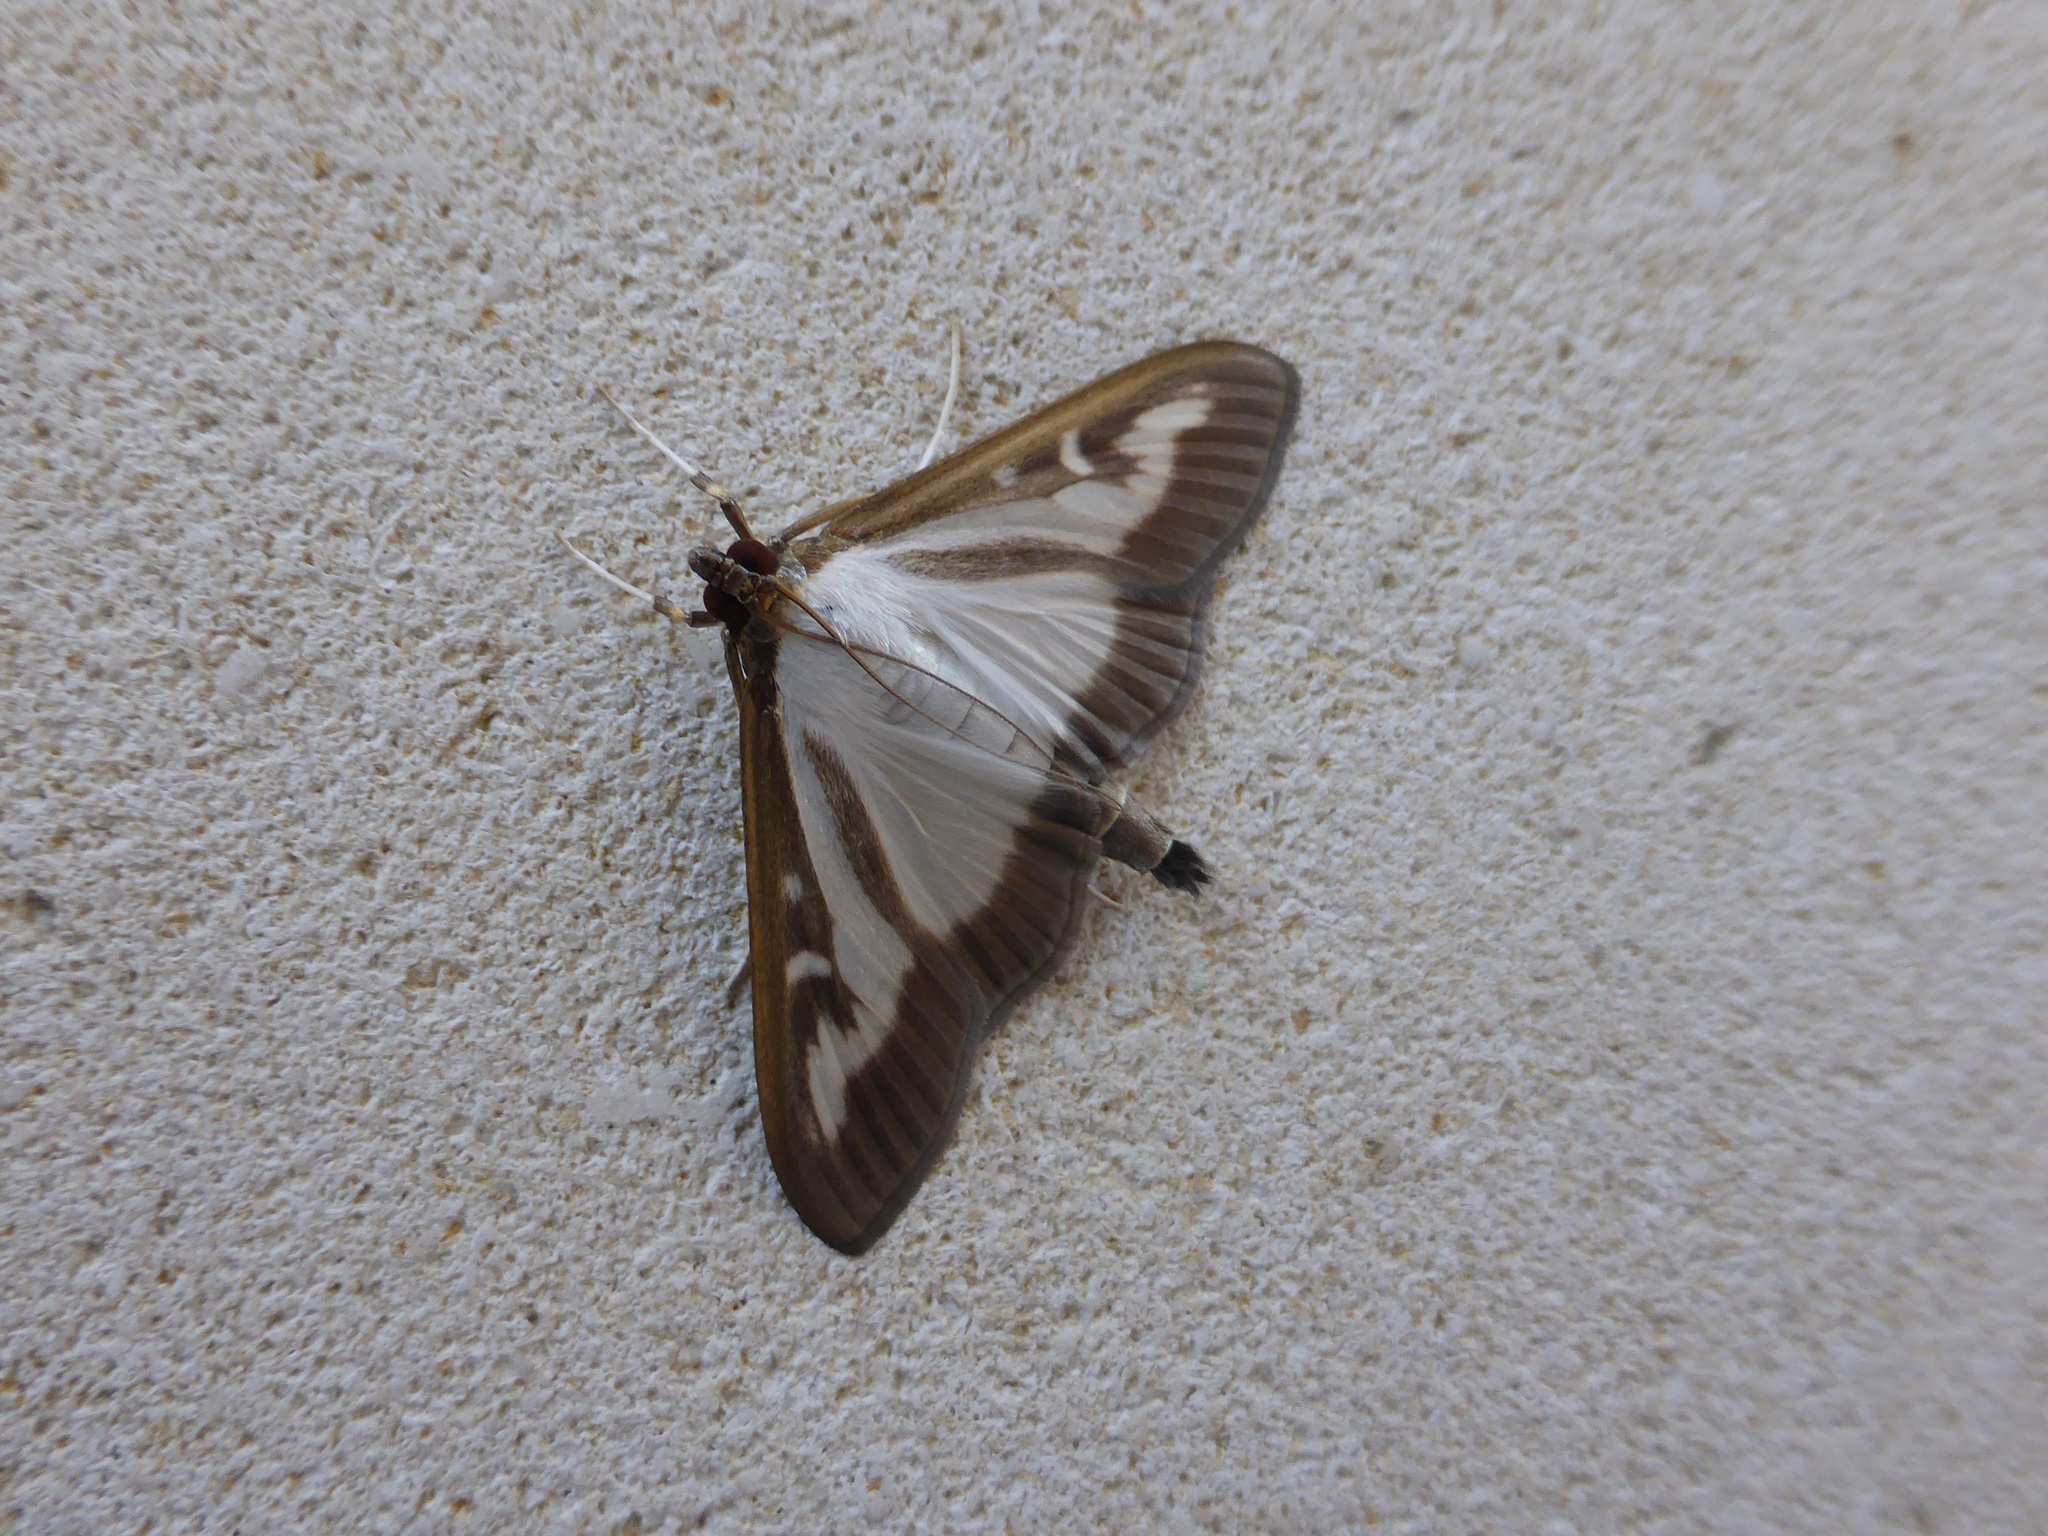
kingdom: Animalia
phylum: Arthropoda
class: Insecta
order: Lepidoptera
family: Crambidae
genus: Cydalima
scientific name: Cydalima perspectalis
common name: Box tree moth
